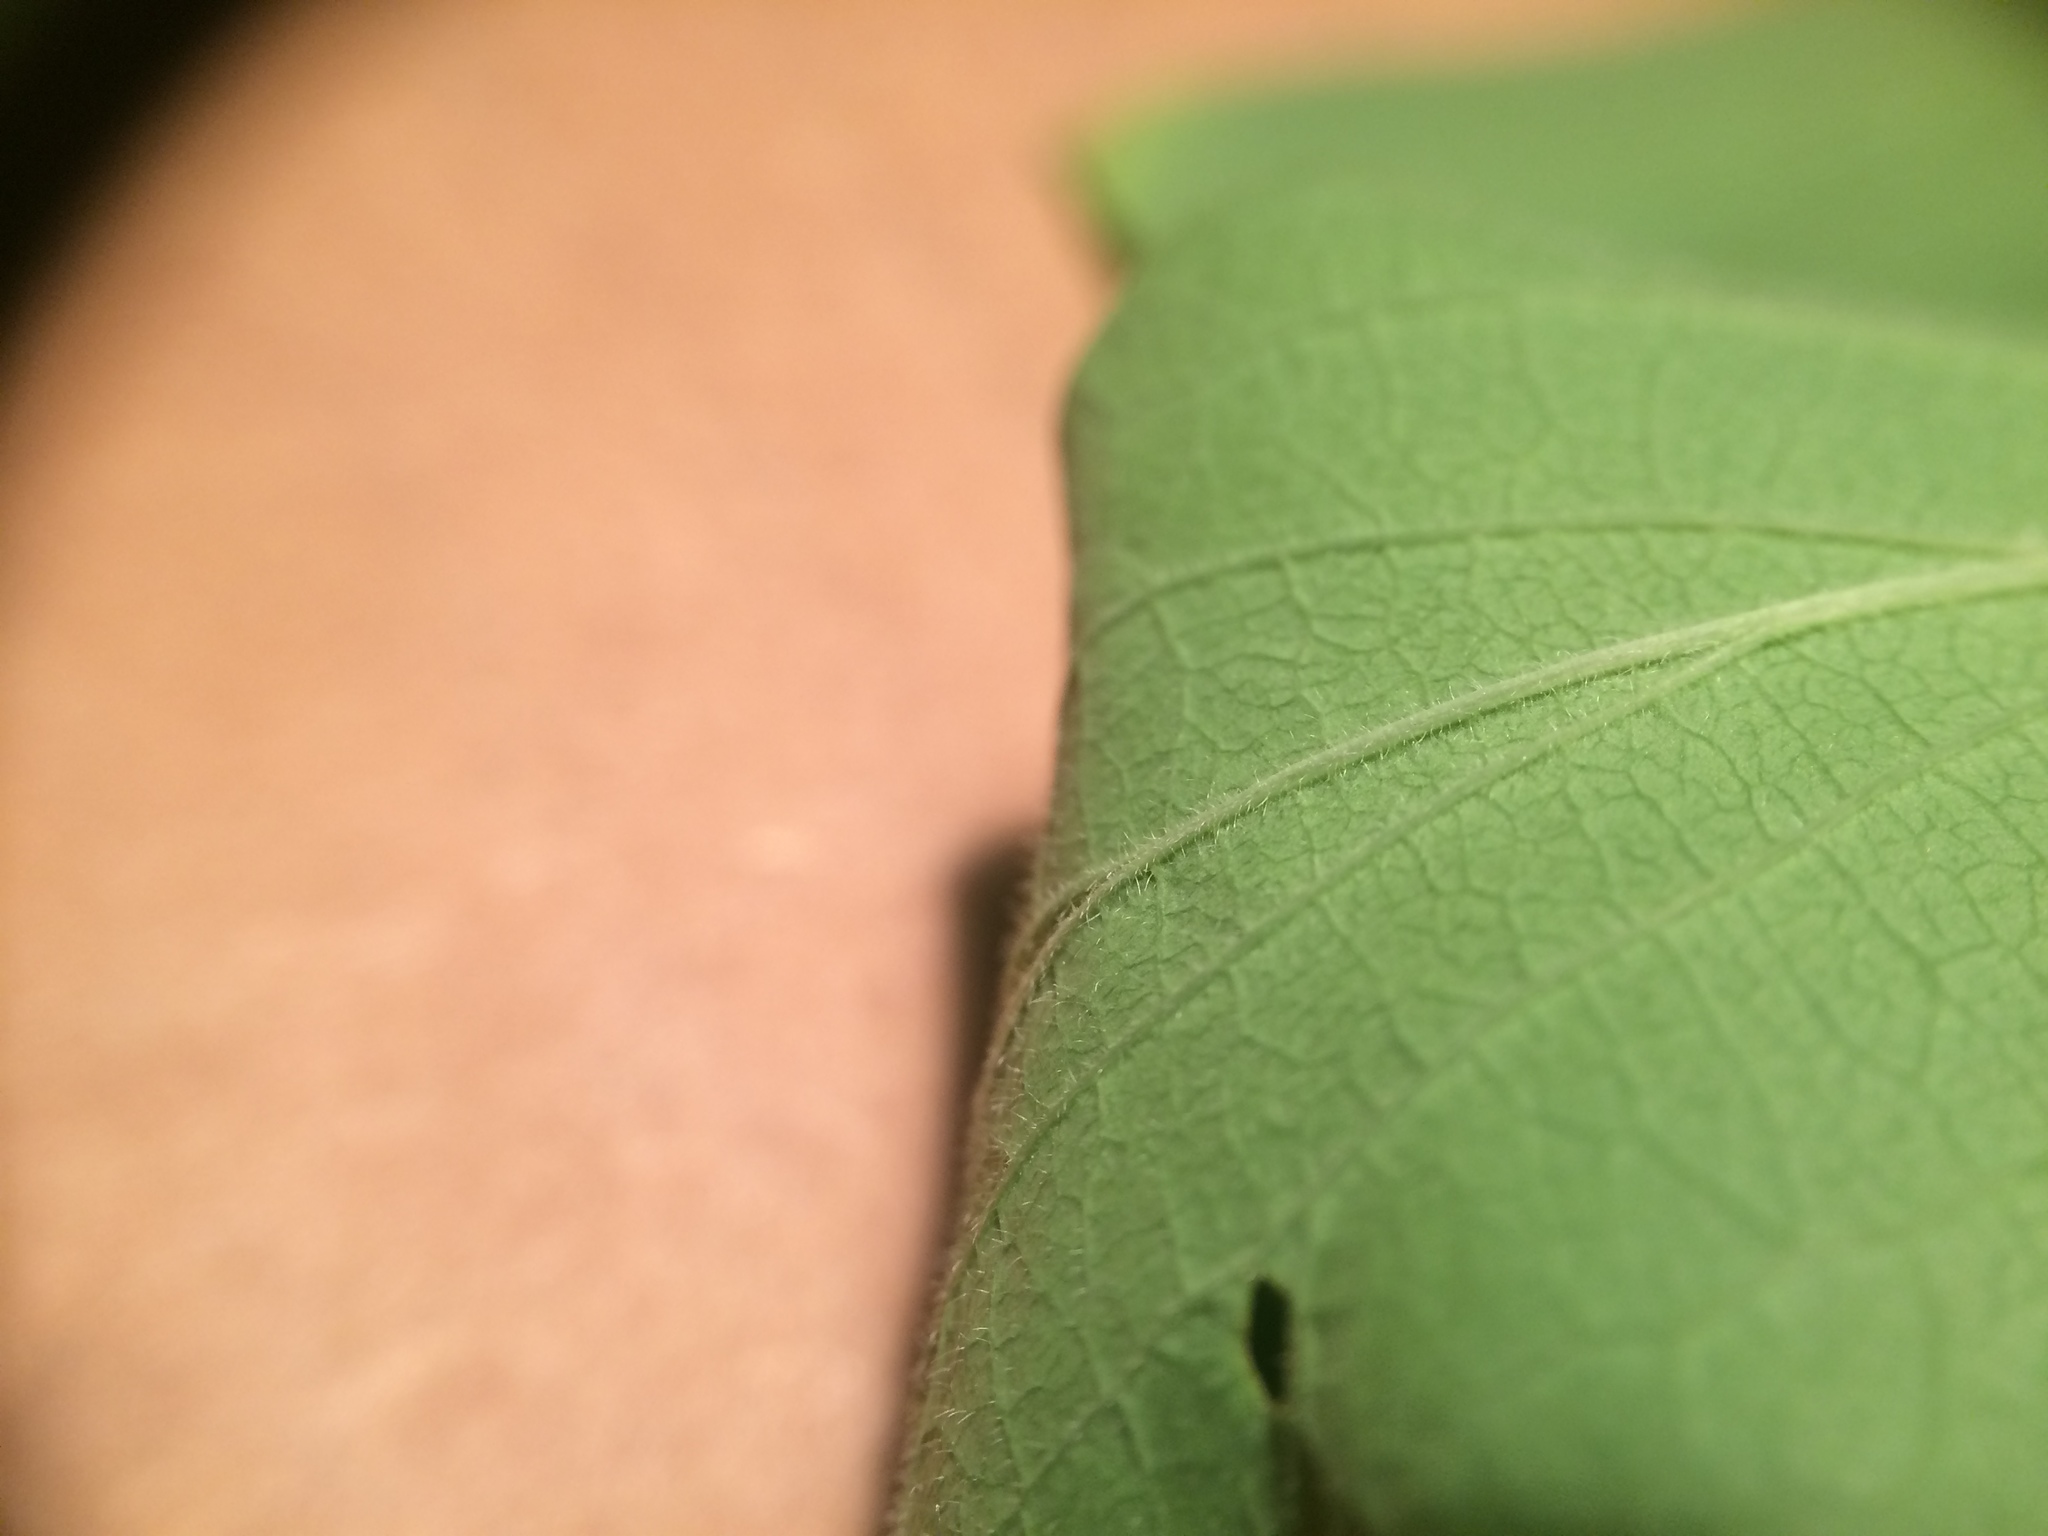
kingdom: Plantae
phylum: Tracheophyta
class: Magnoliopsida
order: Dipsacales
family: Caprifoliaceae
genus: Lonicera
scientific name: Lonicera morrowii
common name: Morrow's honeysuckle
